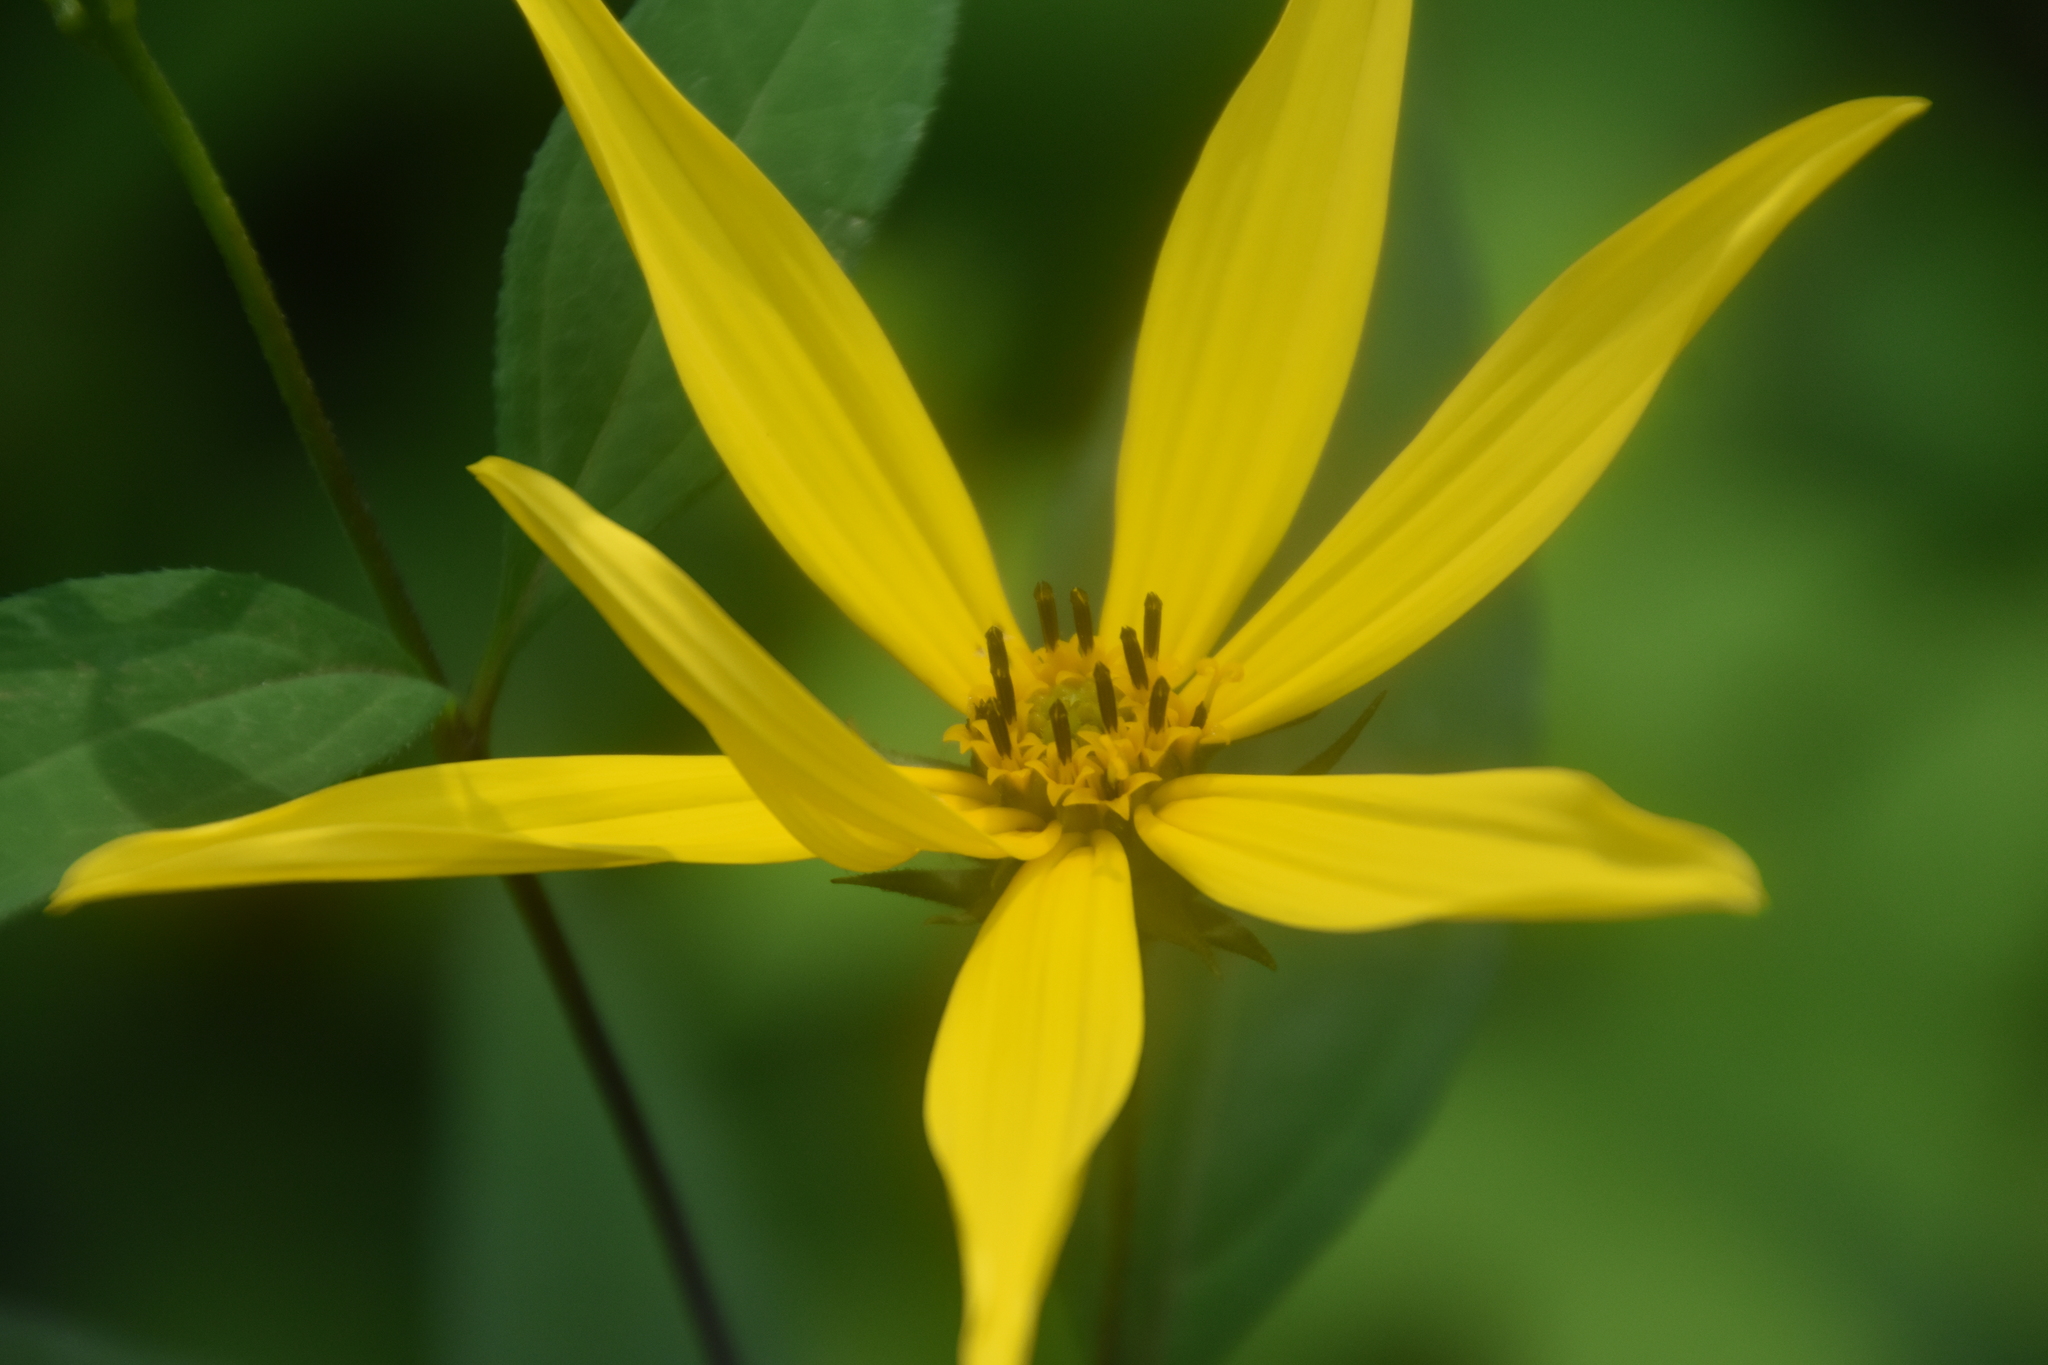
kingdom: Plantae
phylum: Tracheophyta
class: Magnoliopsida
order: Asterales
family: Asteraceae
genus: Helianthus
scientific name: Helianthus tuberosus
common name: Jerusalem artichoke
